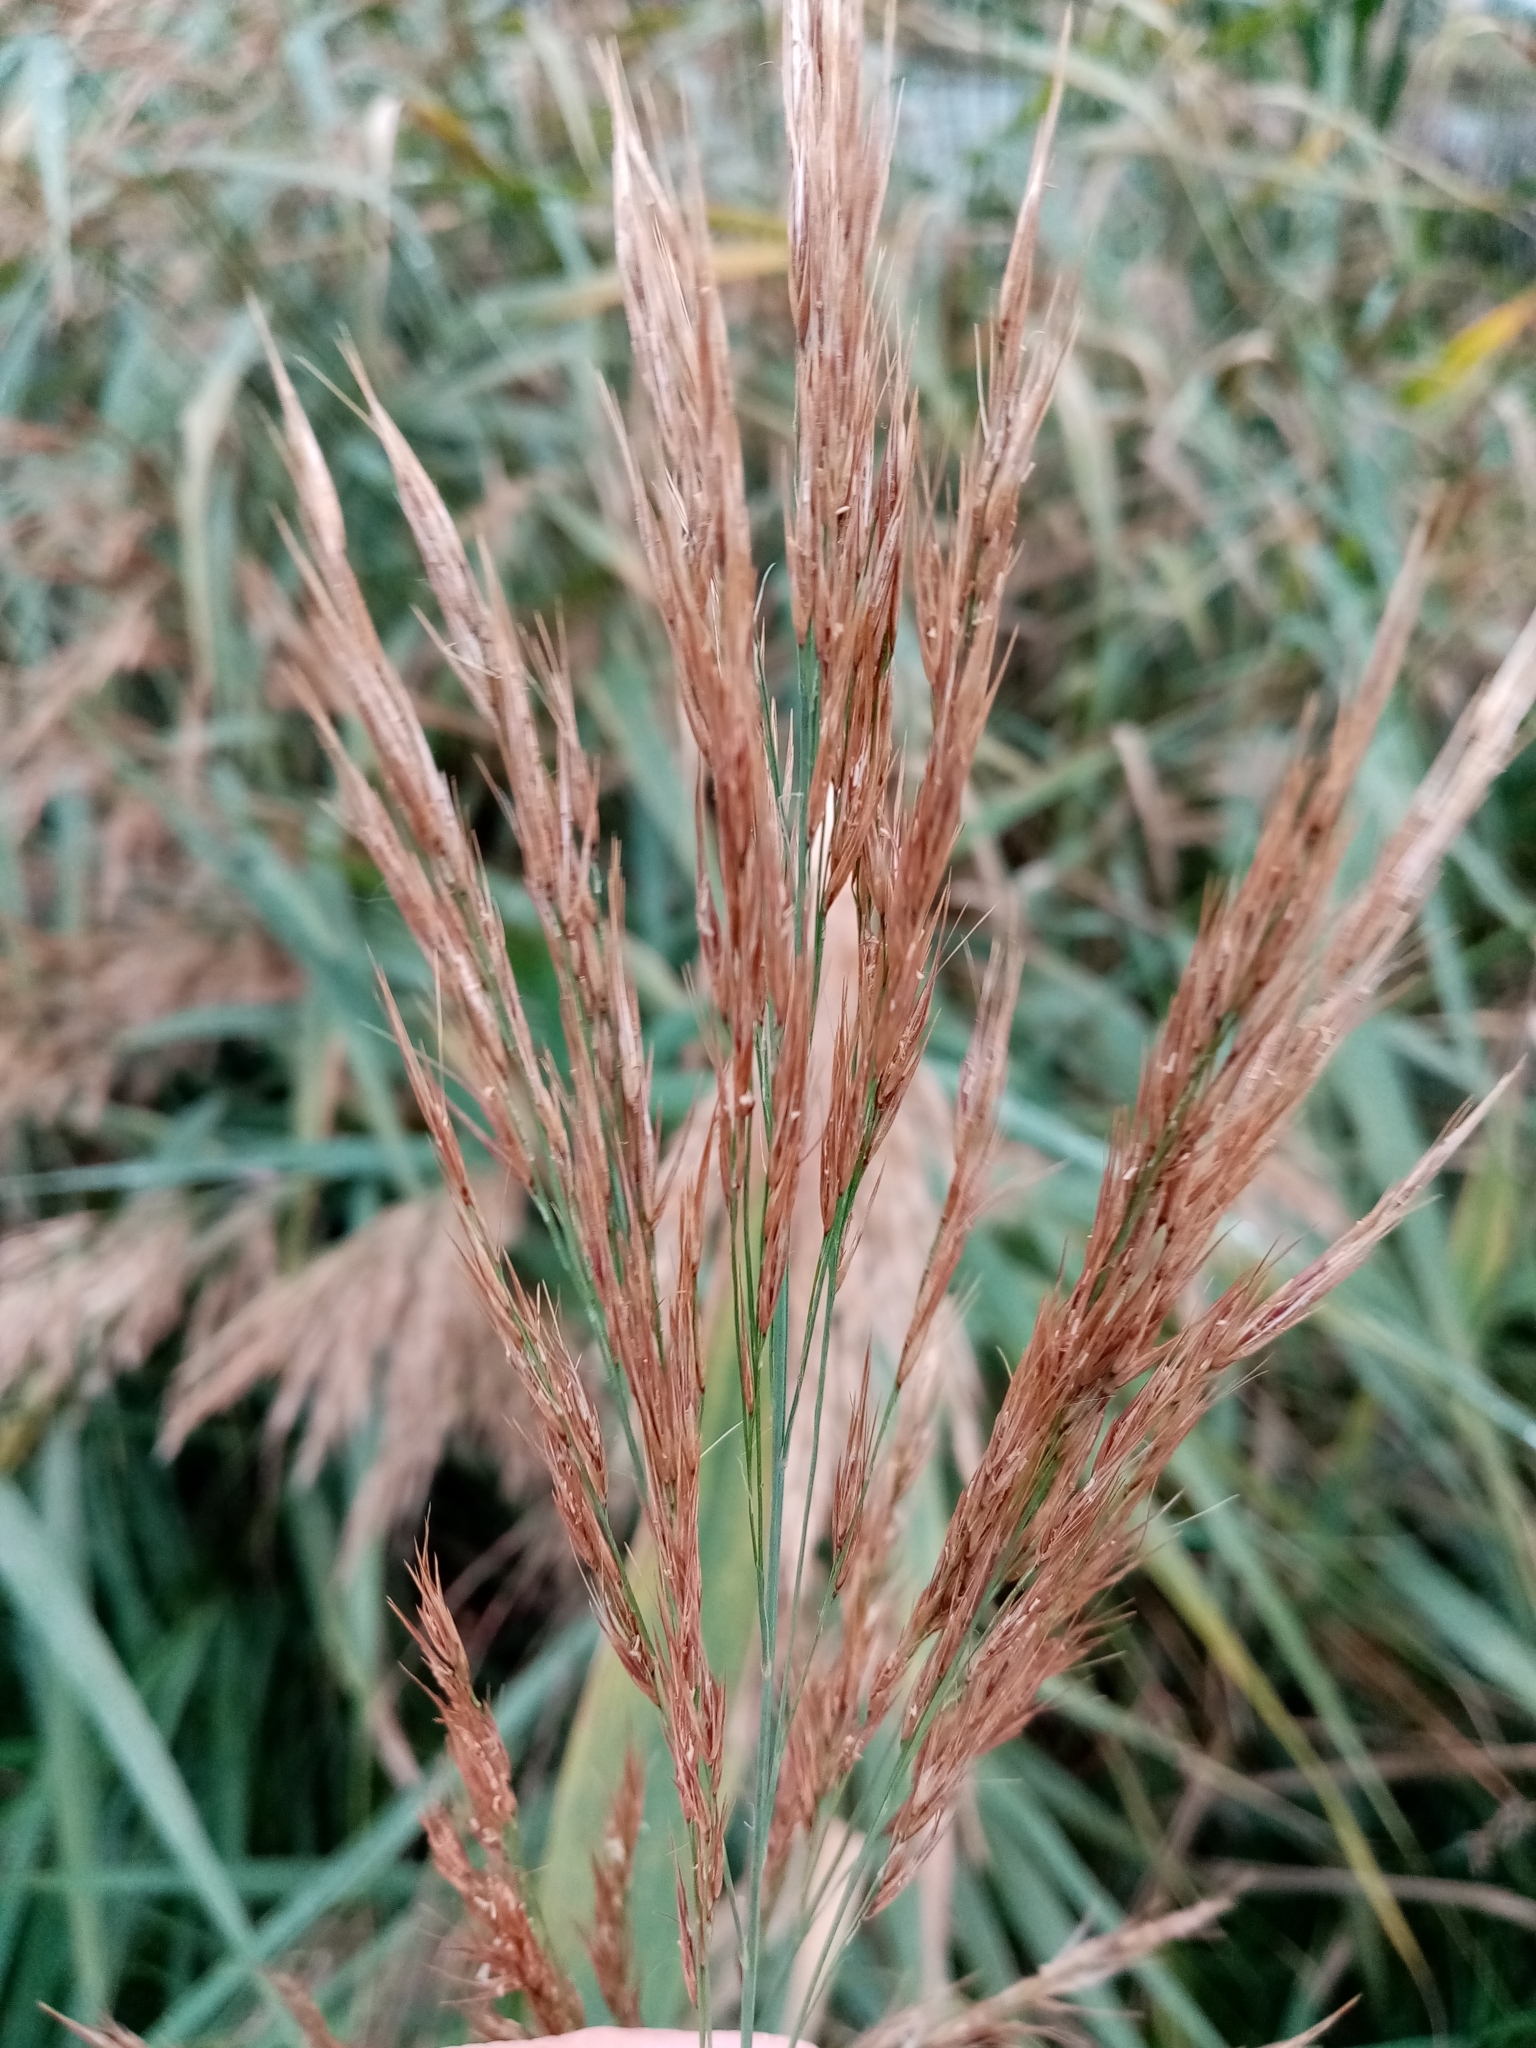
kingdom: Plantae
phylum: Tracheophyta
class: Liliopsida
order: Poales
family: Poaceae
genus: Phragmites
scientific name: Phragmites australis
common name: Common reed
